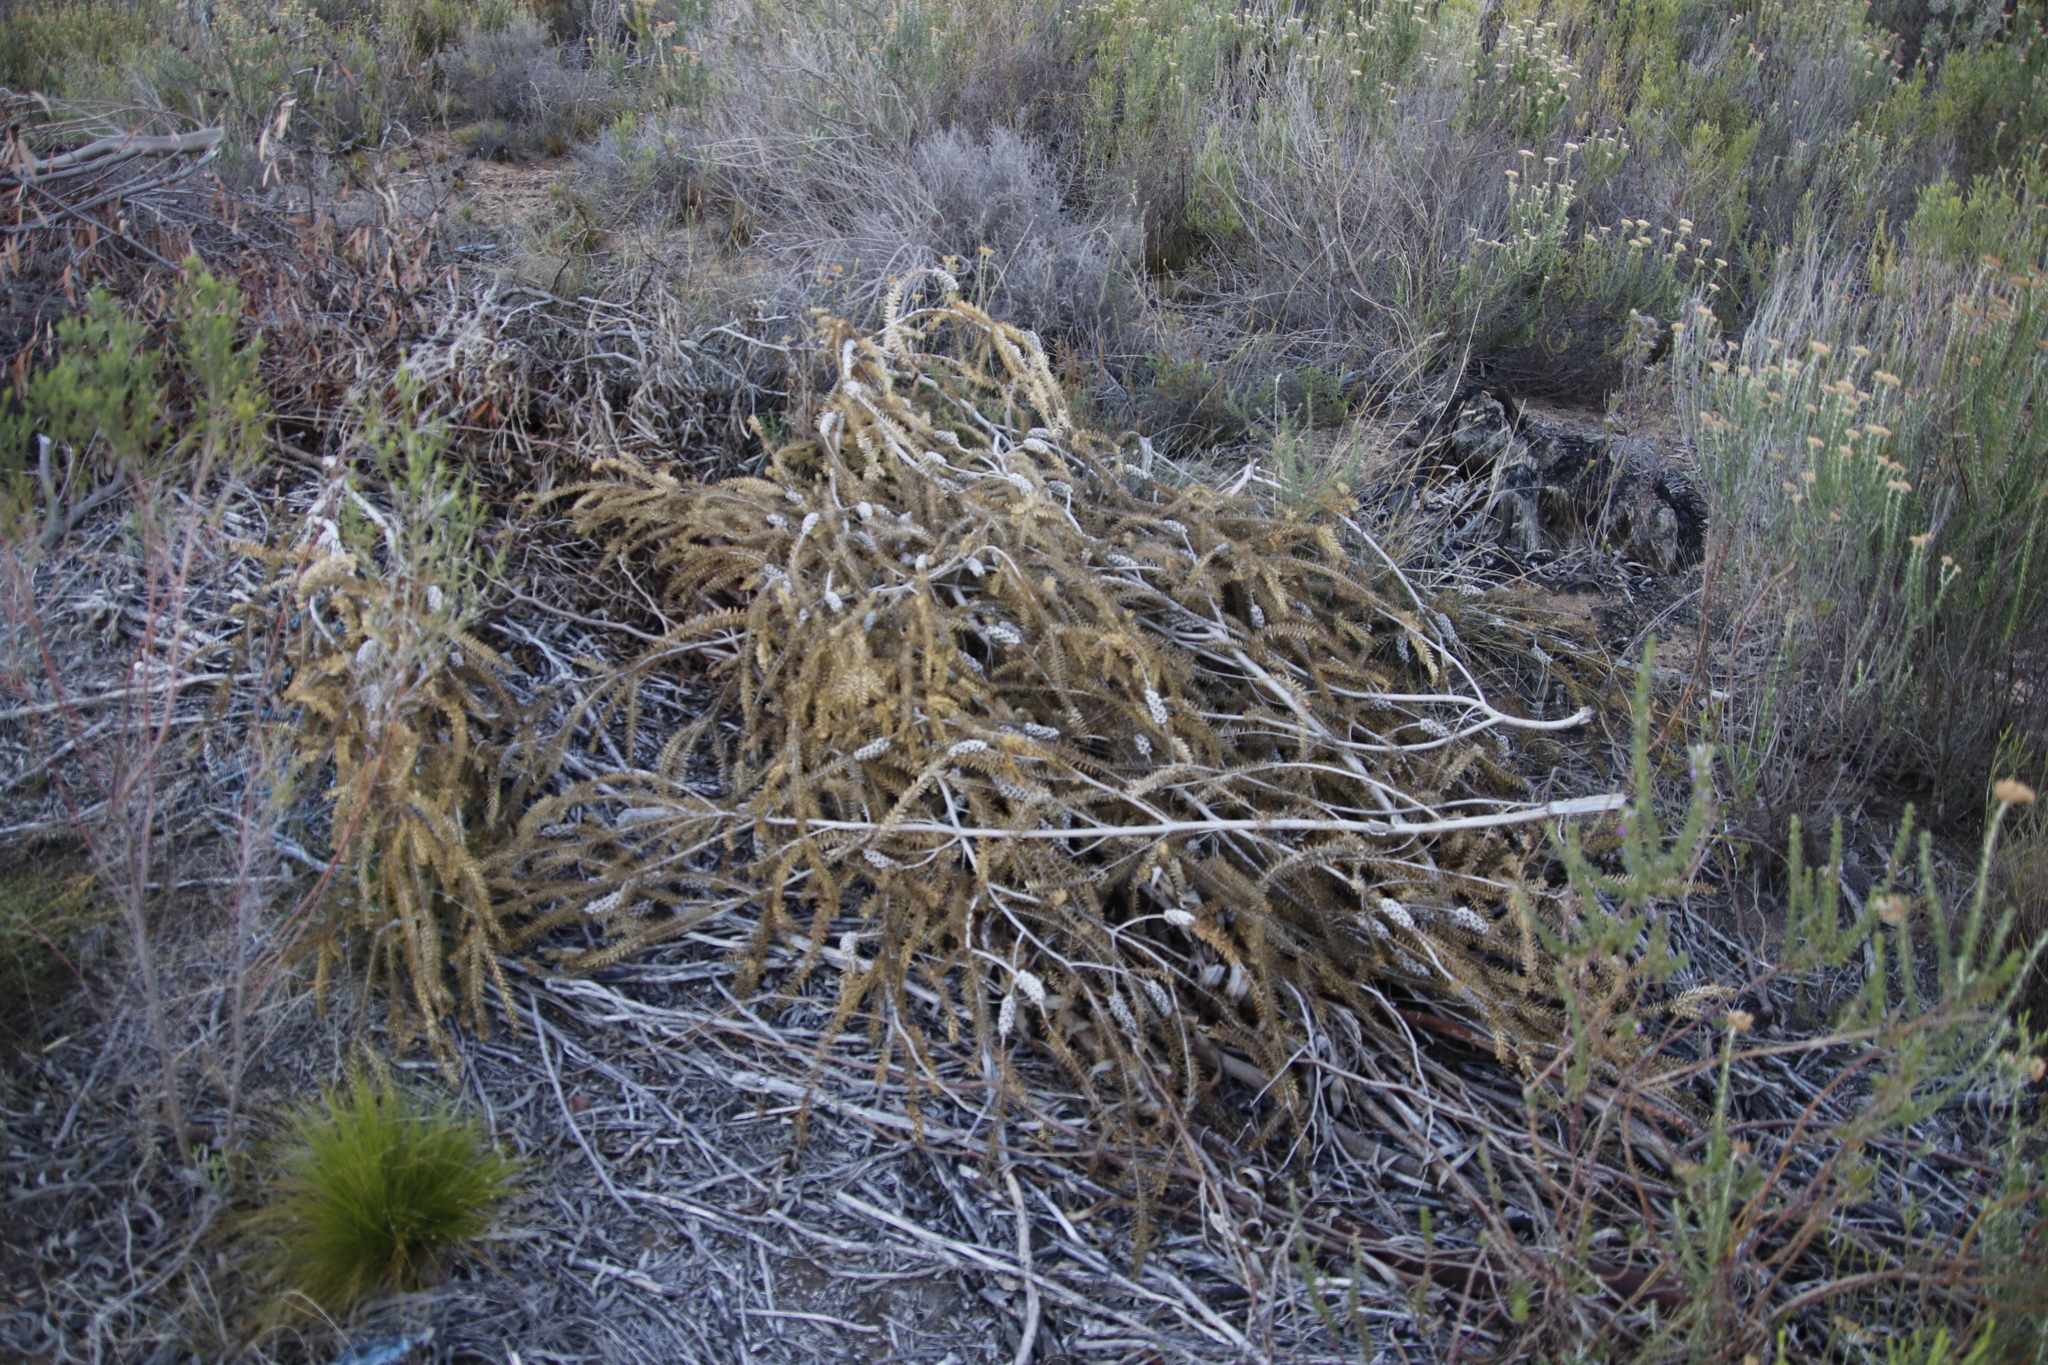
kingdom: Plantae
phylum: Tracheophyta
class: Magnoliopsida
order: Myrtales
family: Myrtaceae
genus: Melaleuca
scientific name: Melaleuca diosmifolia
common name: Green honey myrtle
